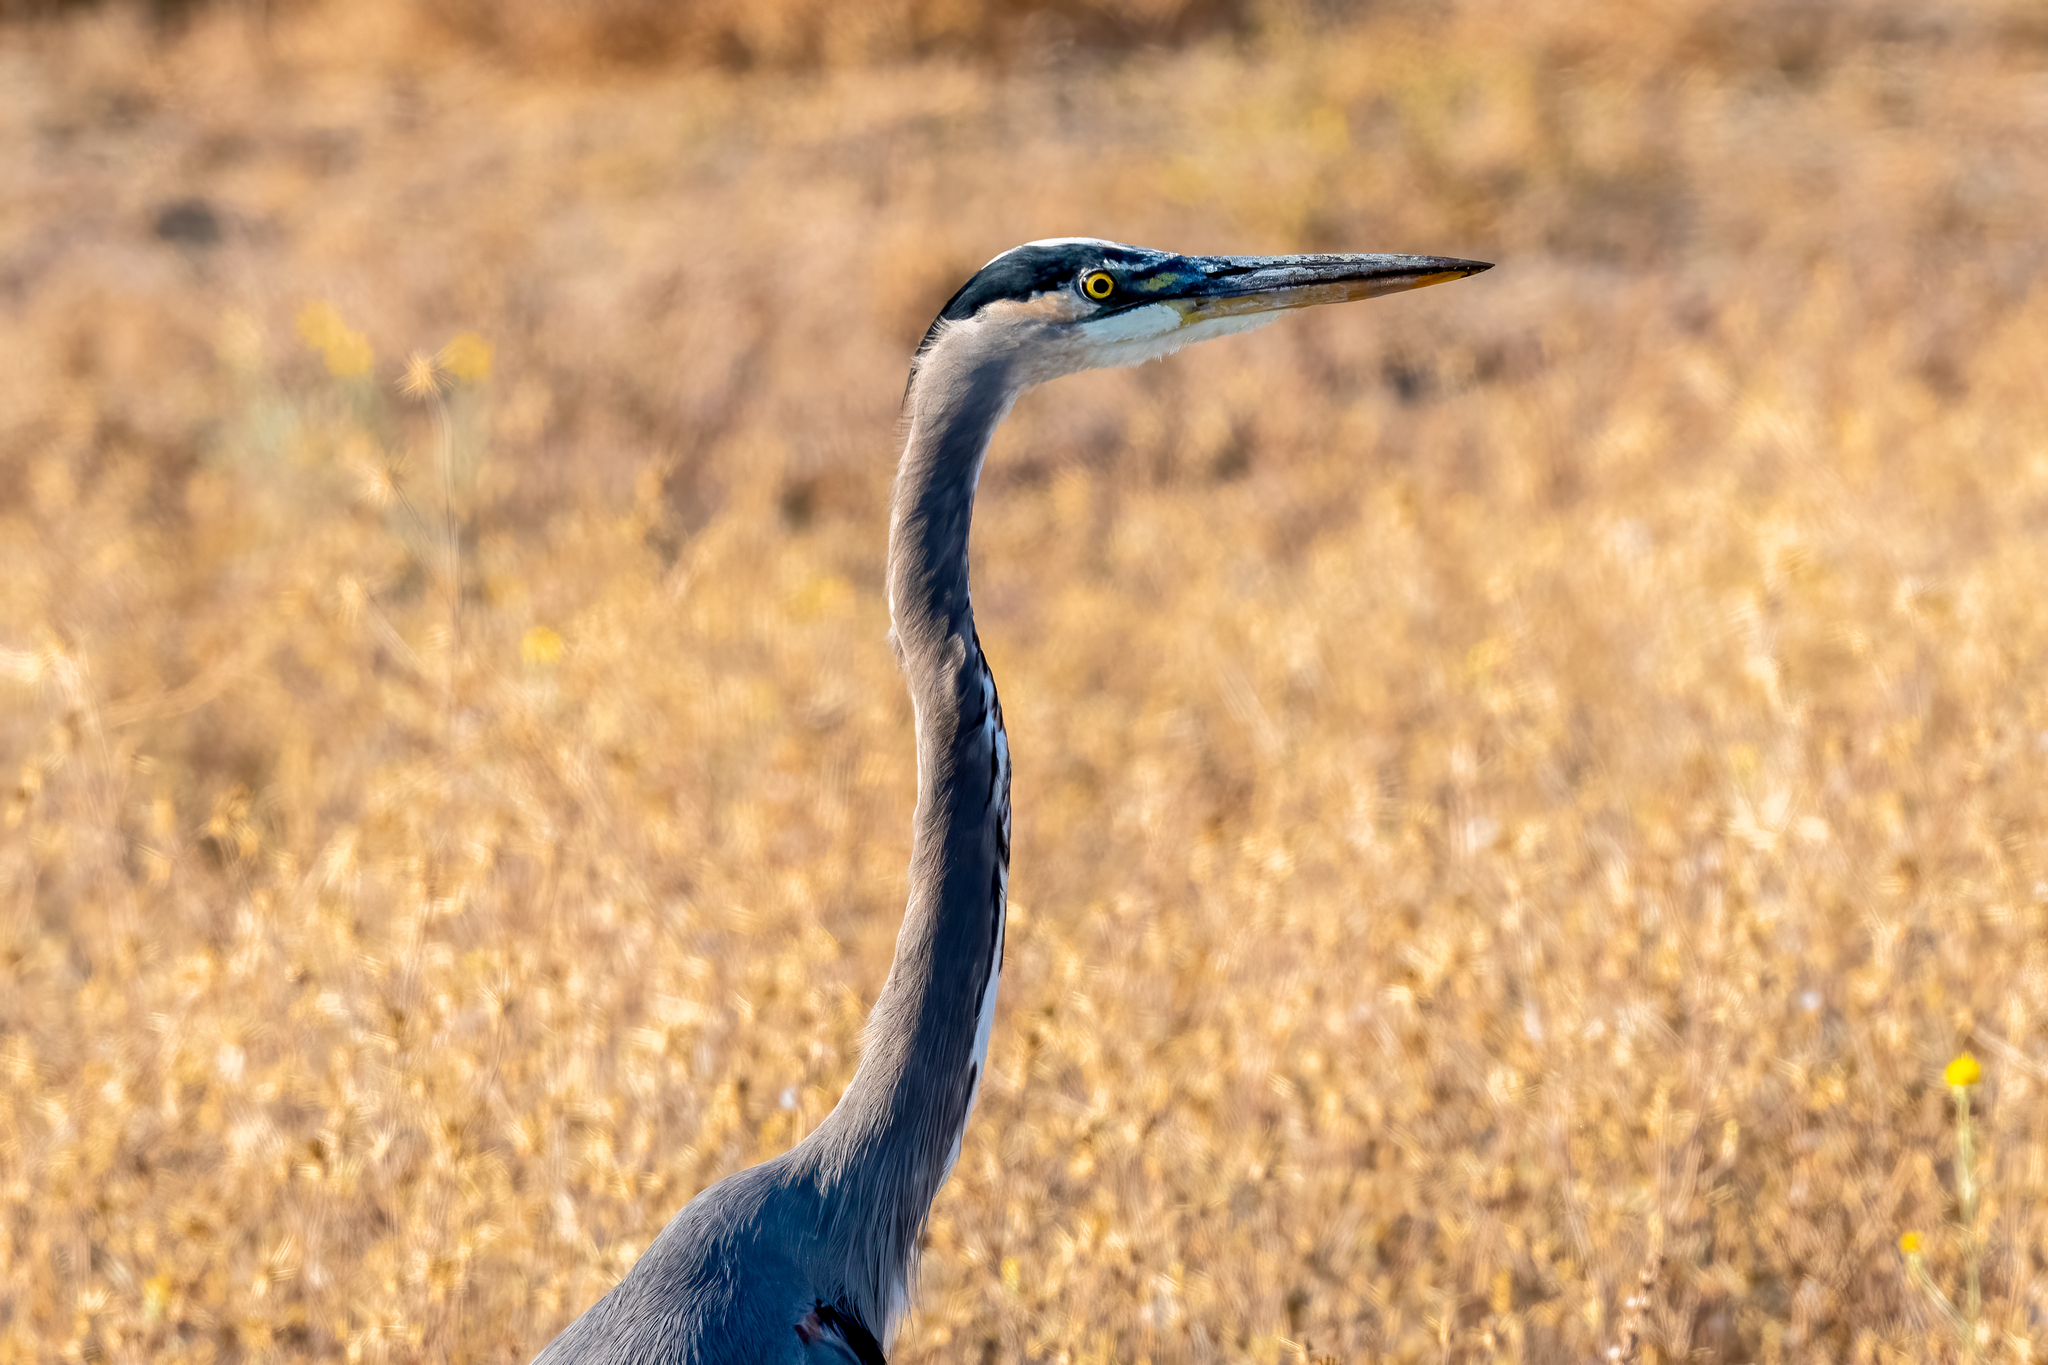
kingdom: Animalia
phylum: Chordata
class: Aves
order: Pelecaniformes
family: Ardeidae
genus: Ardea
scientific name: Ardea herodias
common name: Great blue heron
